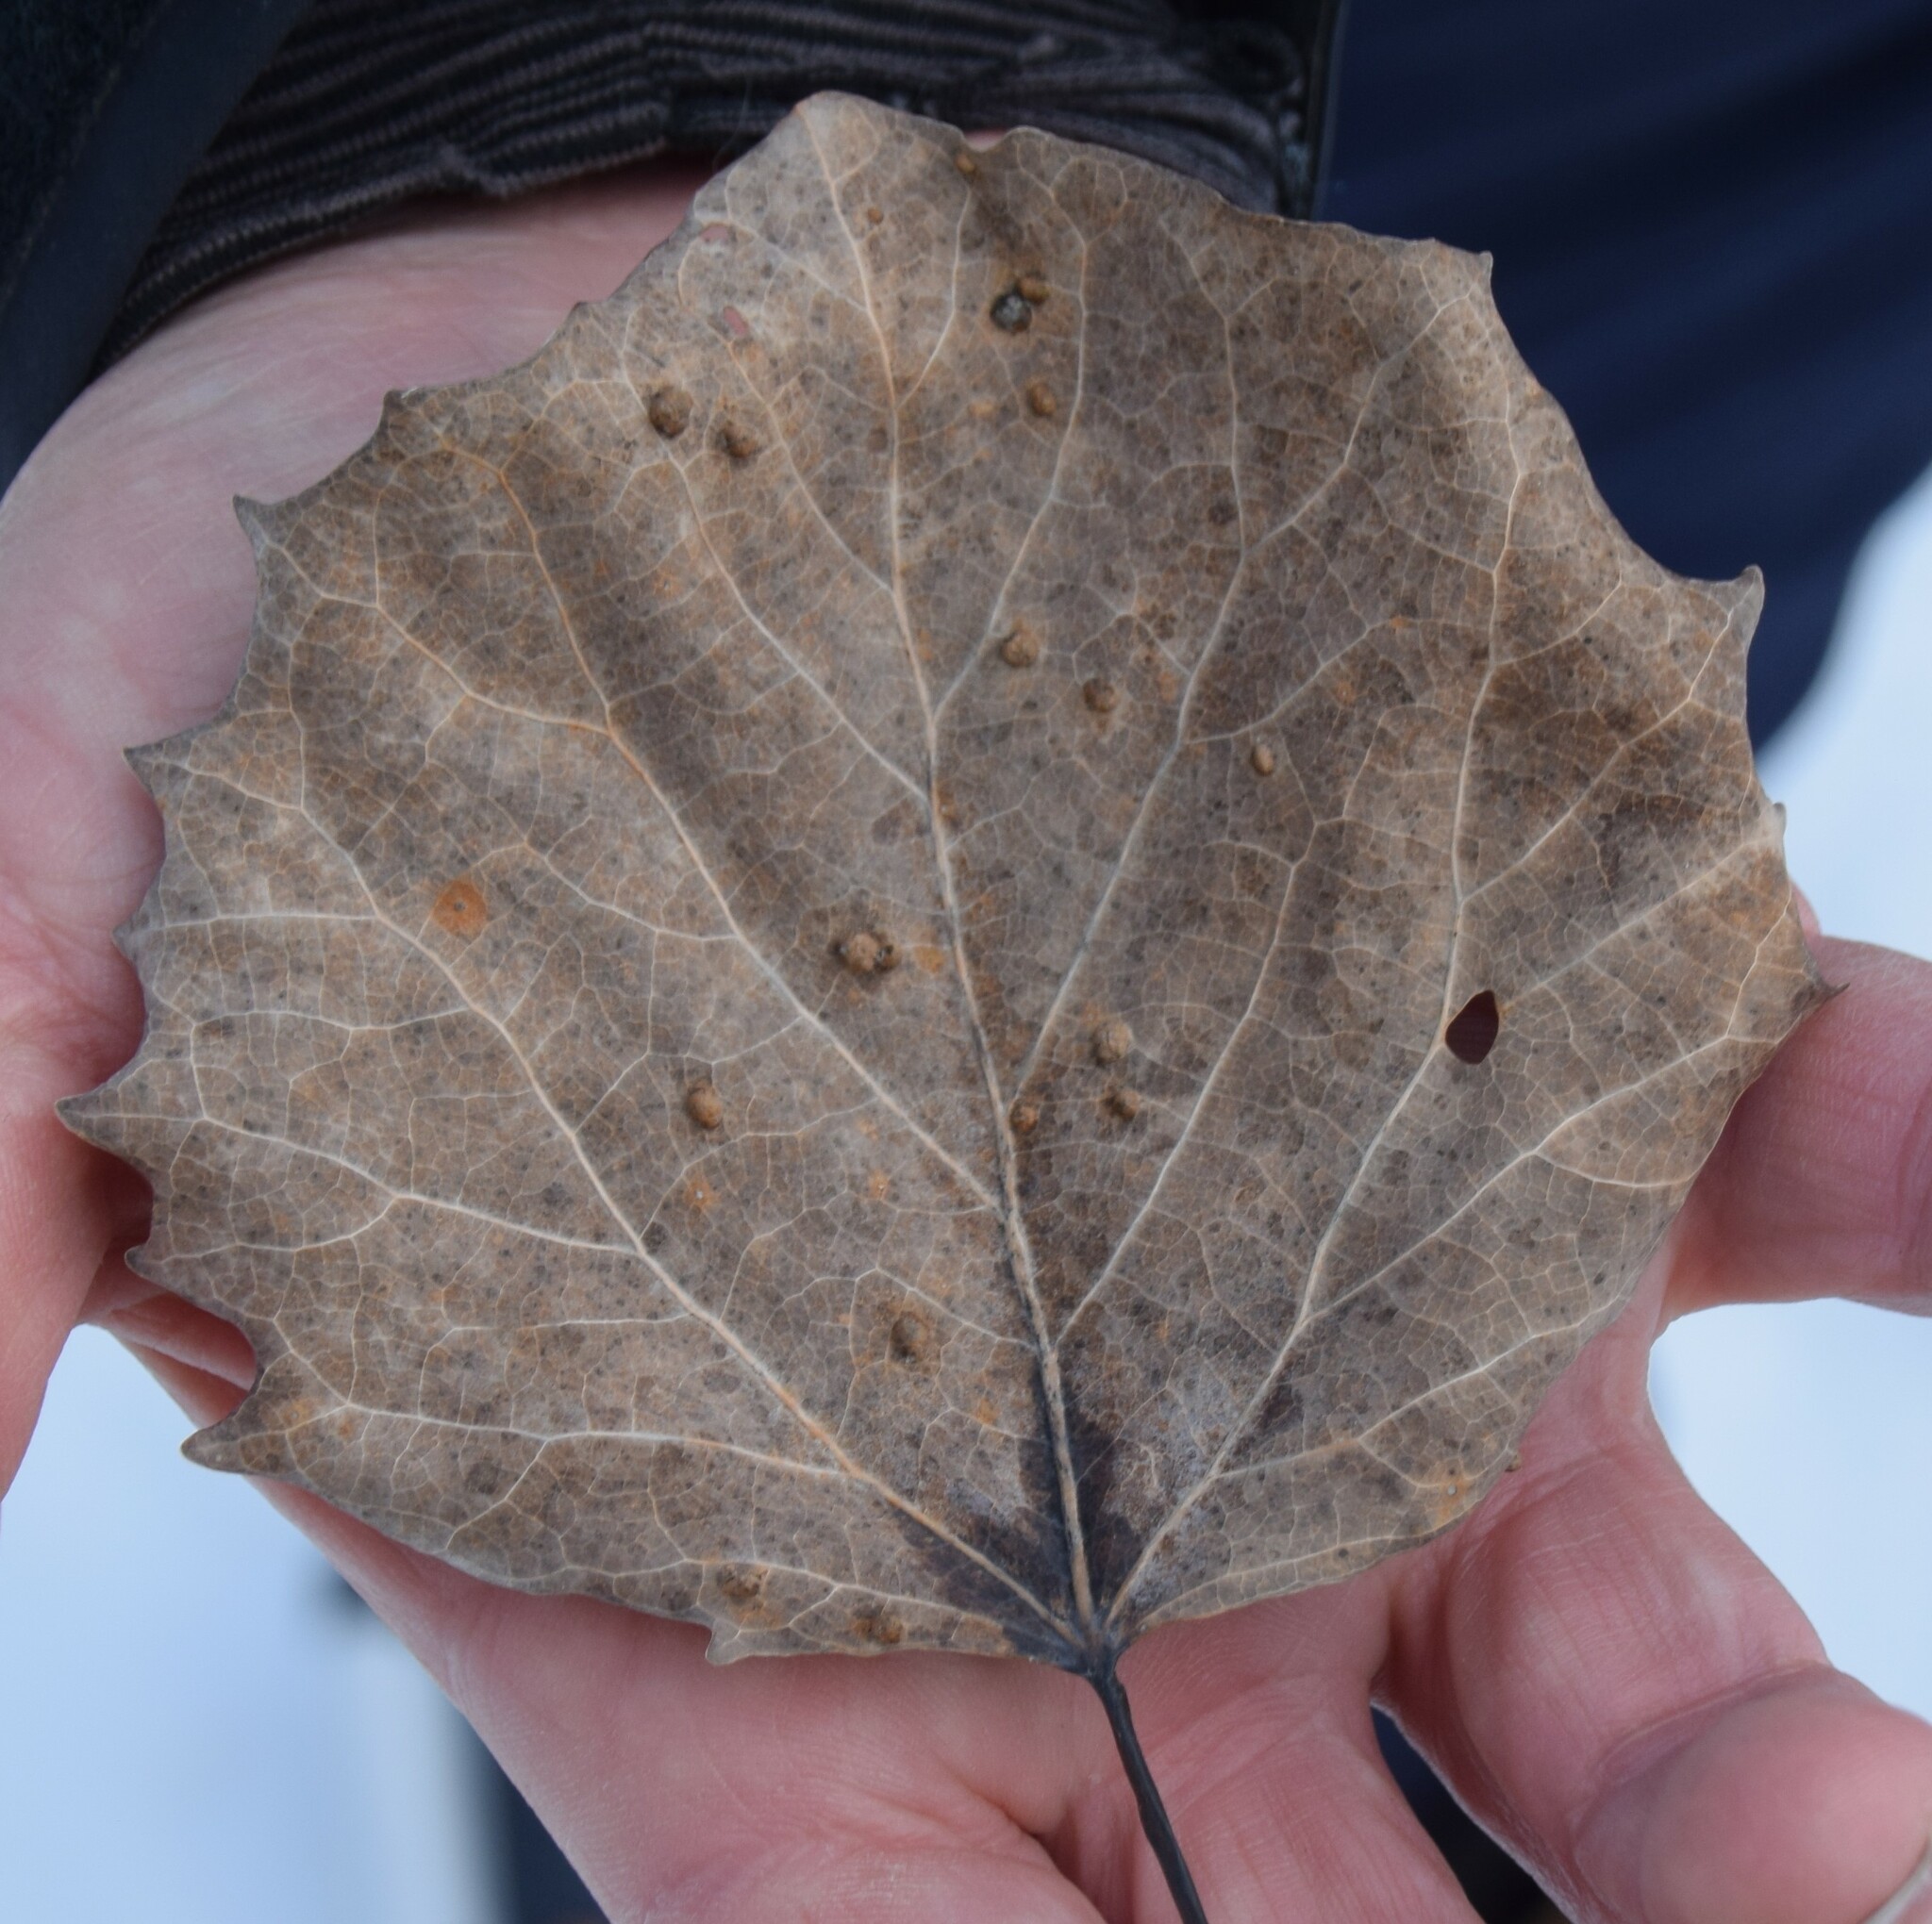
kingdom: Plantae
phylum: Tracheophyta
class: Magnoliopsida
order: Malpighiales
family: Salicaceae
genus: Populus
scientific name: Populus grandidentata
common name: Bigtooth aspen
